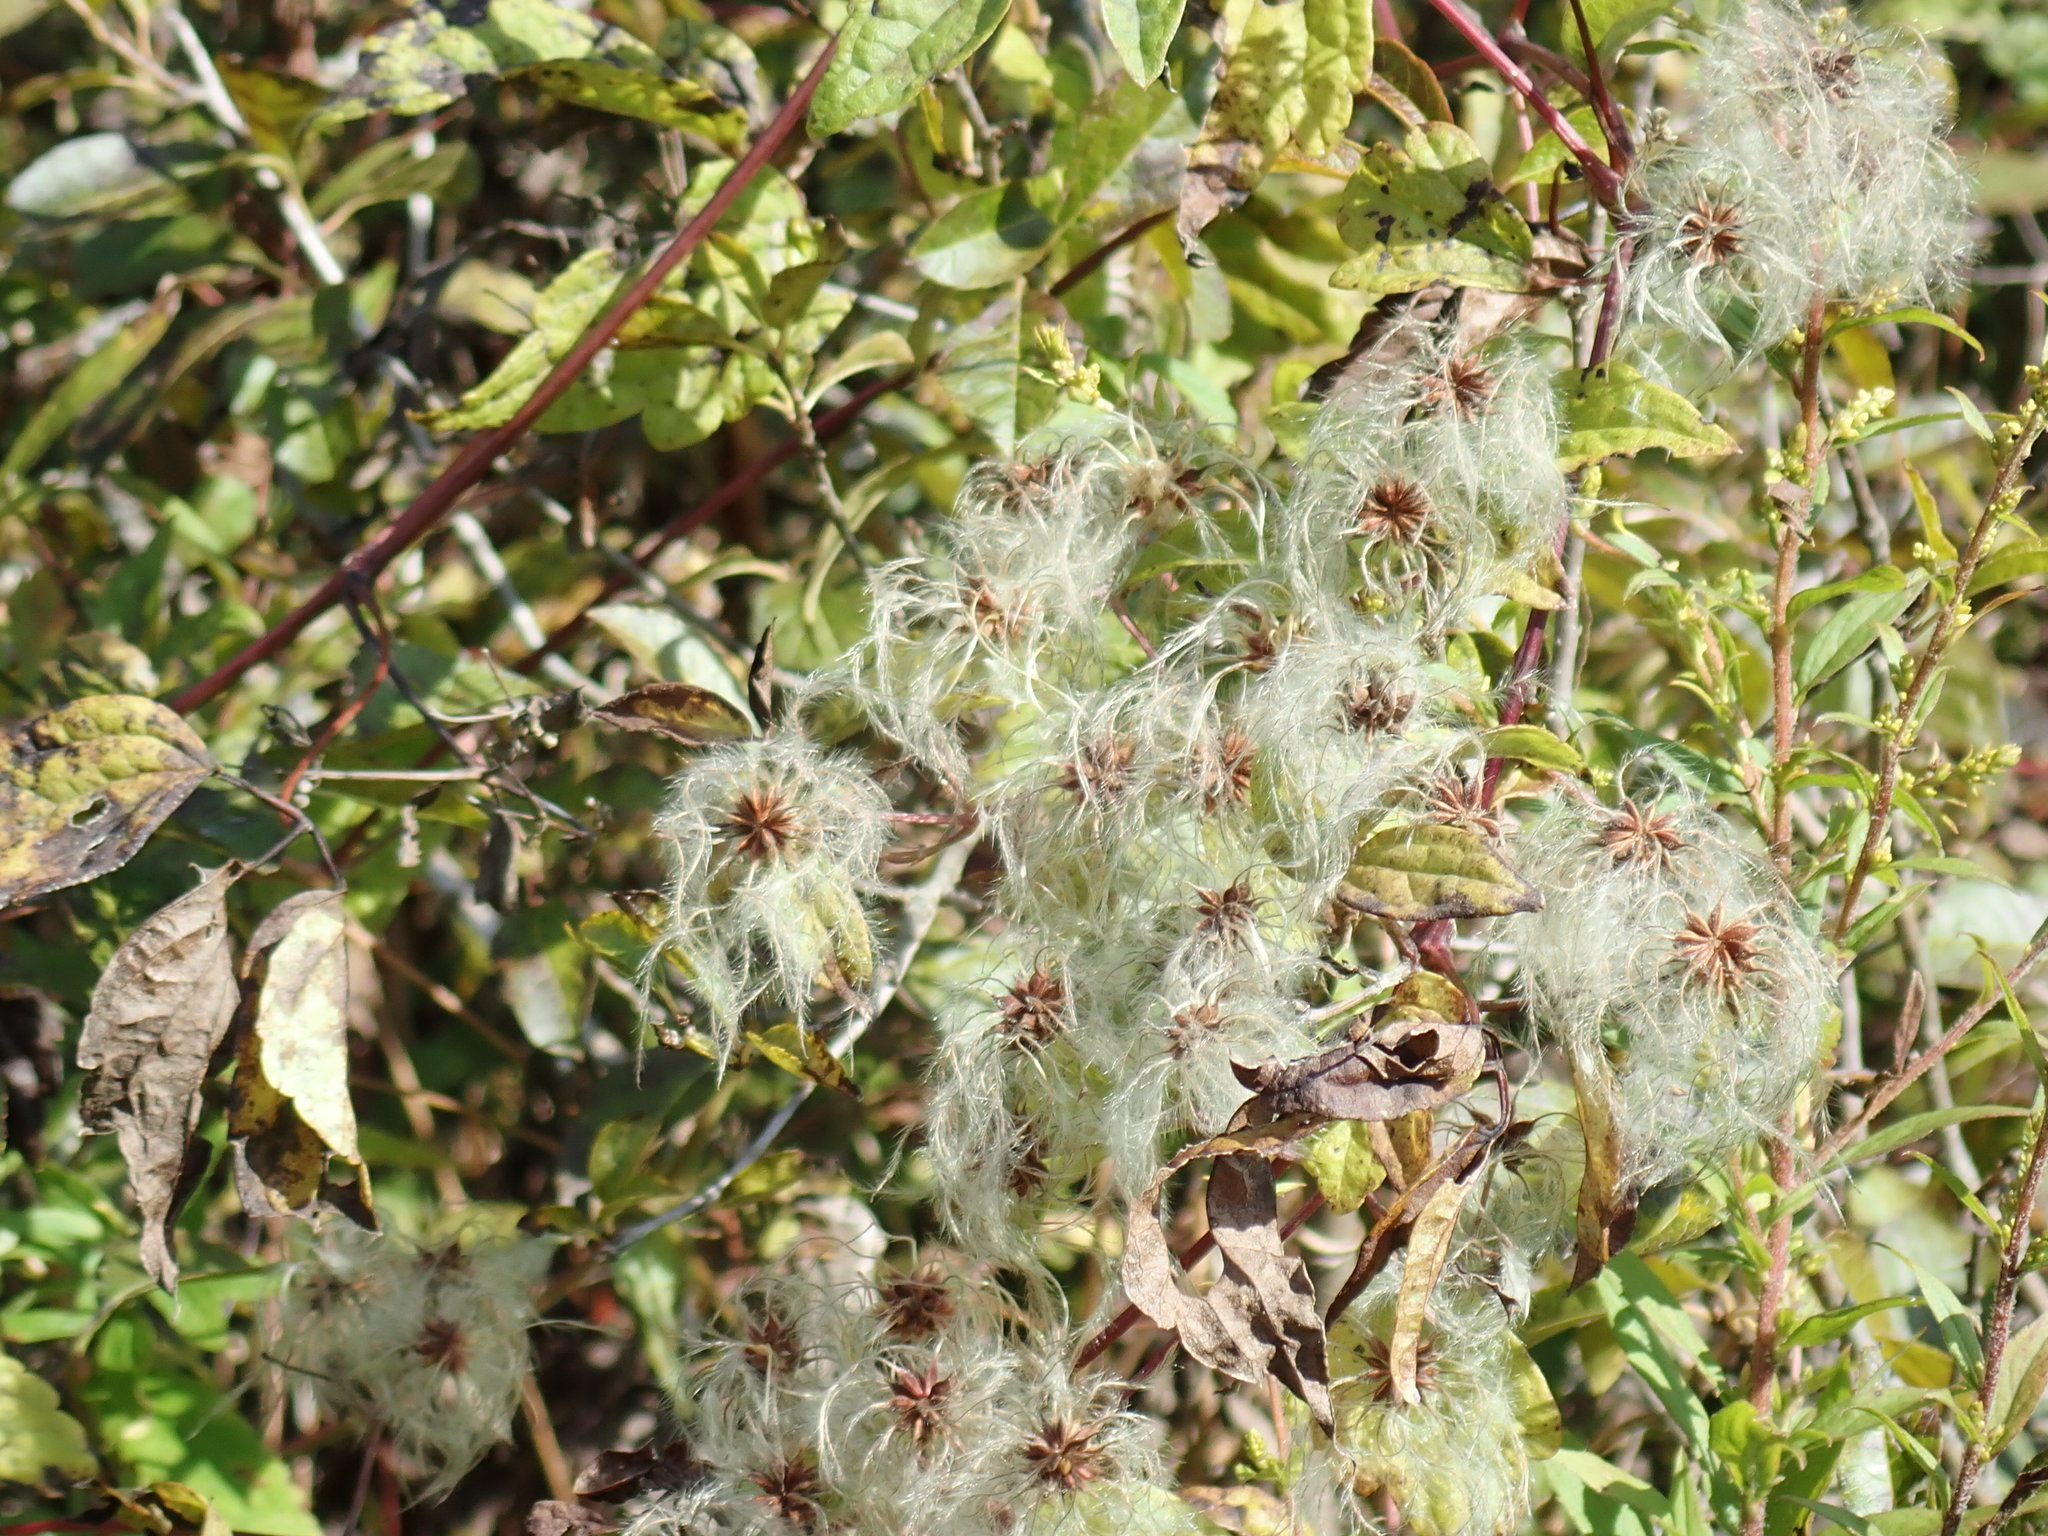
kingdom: Plantae
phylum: Tracheophyta
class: Magnoliopsida
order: Ranunculales
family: Ranunculaceae
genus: Clematis
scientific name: Clematis virginiana
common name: Virgin's-bower
